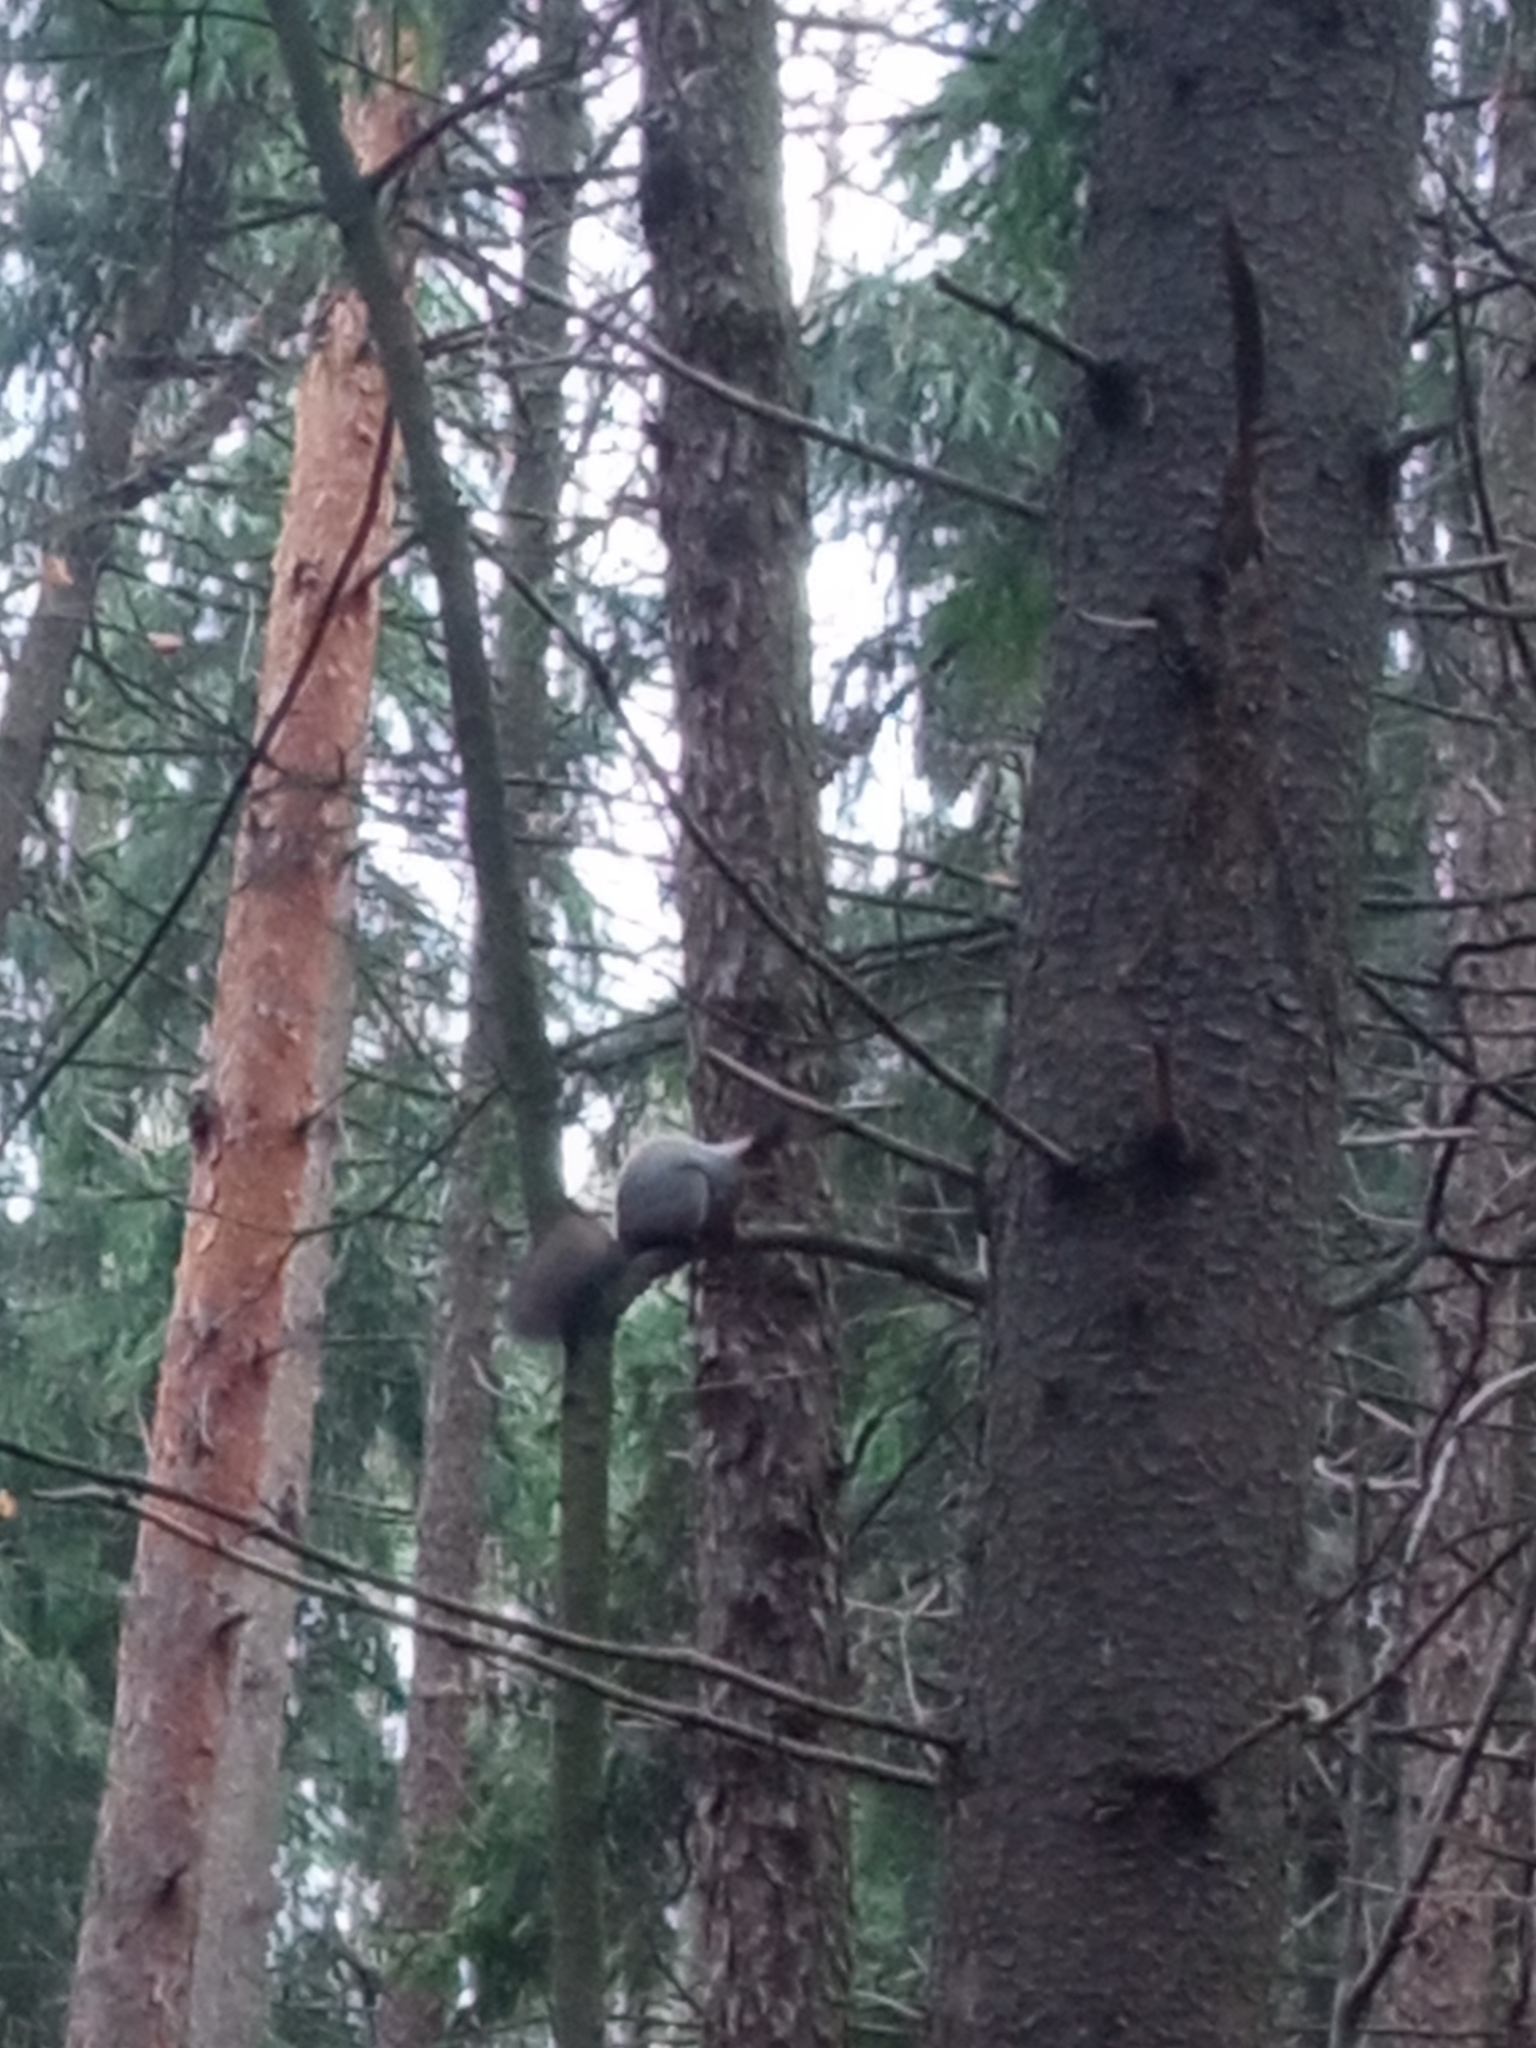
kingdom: Animalia
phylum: Chordata
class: Mammalia
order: Rodentia
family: Sciuridae
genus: Sciurus
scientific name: Sciurus vulgaris
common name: Eurasian red squirrel
